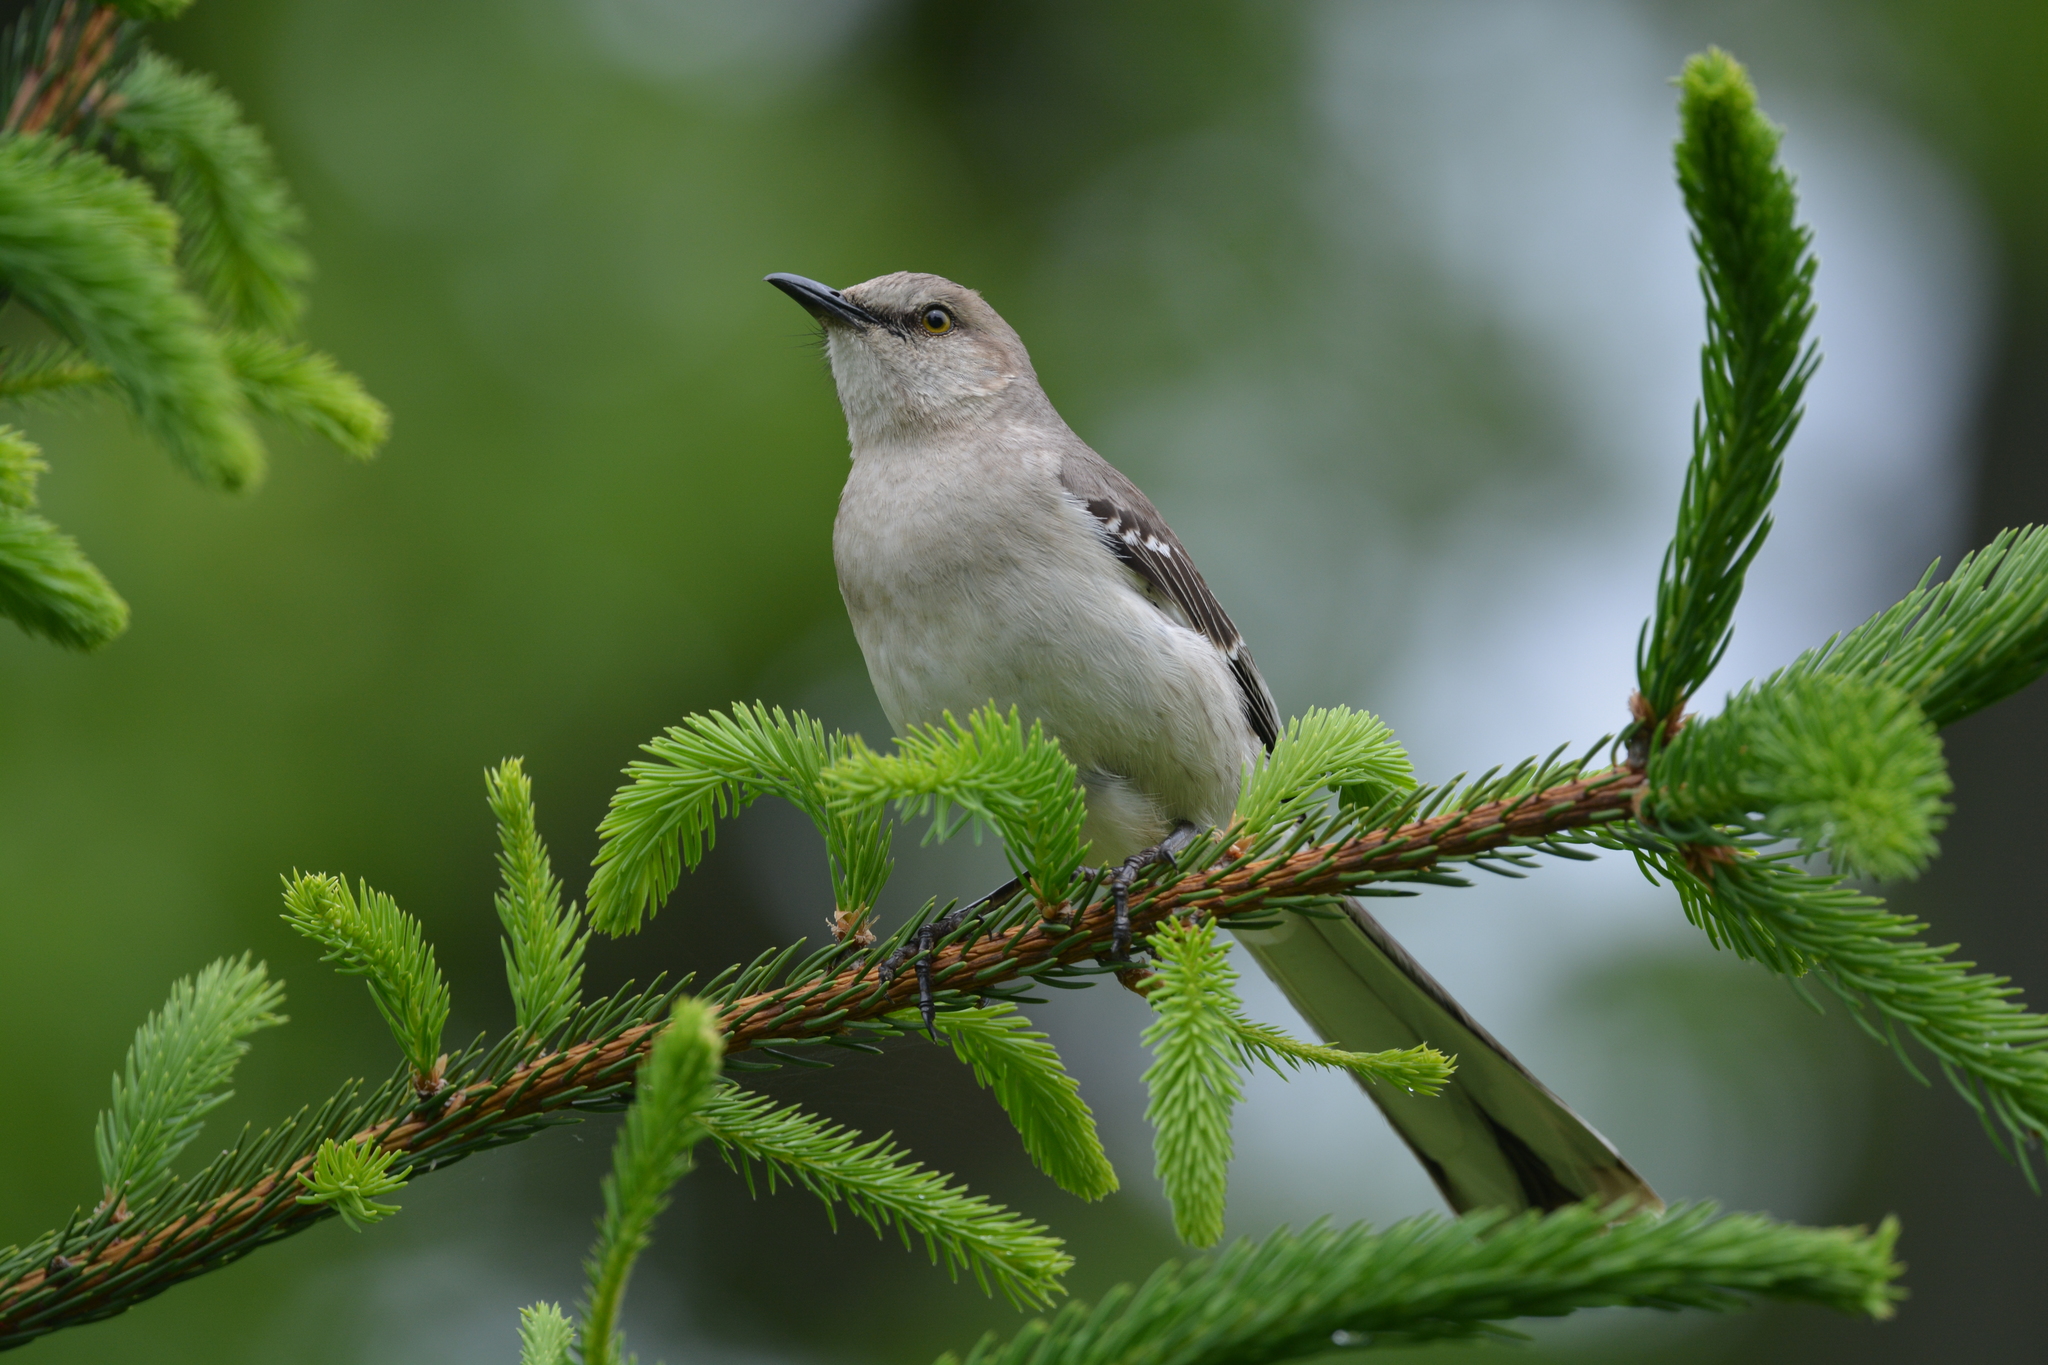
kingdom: Animalia
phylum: Chordata
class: Aves
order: Passeriformes
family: Mimidae
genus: Mimus
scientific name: Mimus polyglottos
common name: Northern mockingbird
